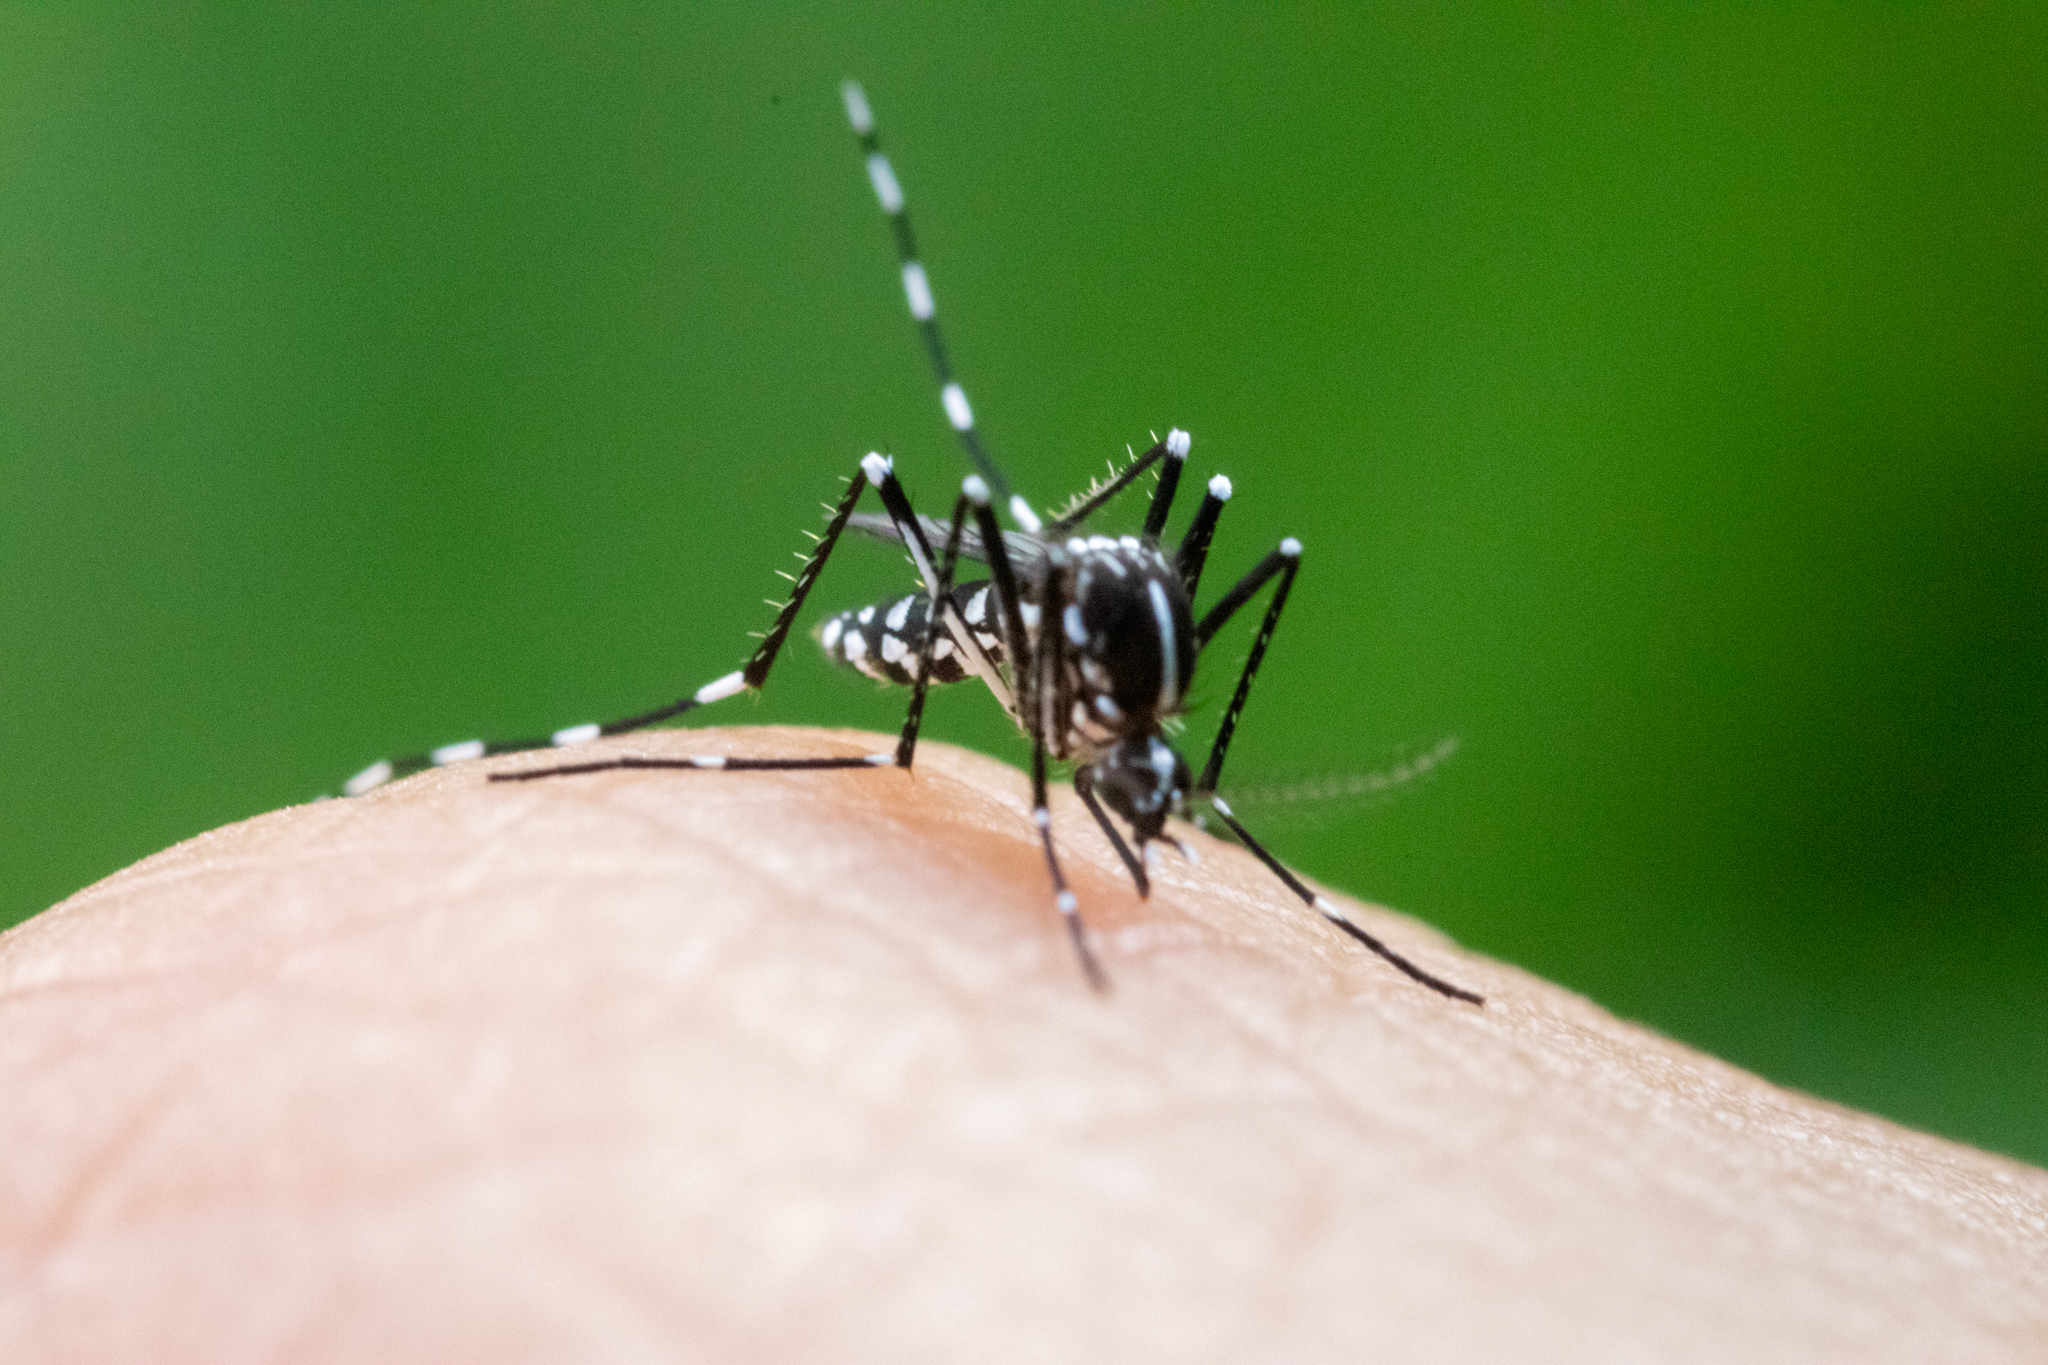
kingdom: Animalia
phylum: Arthropoda
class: Insecta
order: Diptera
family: Culicidae
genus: Aedes
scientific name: Aedes albopictus
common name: Tiger mosquito
